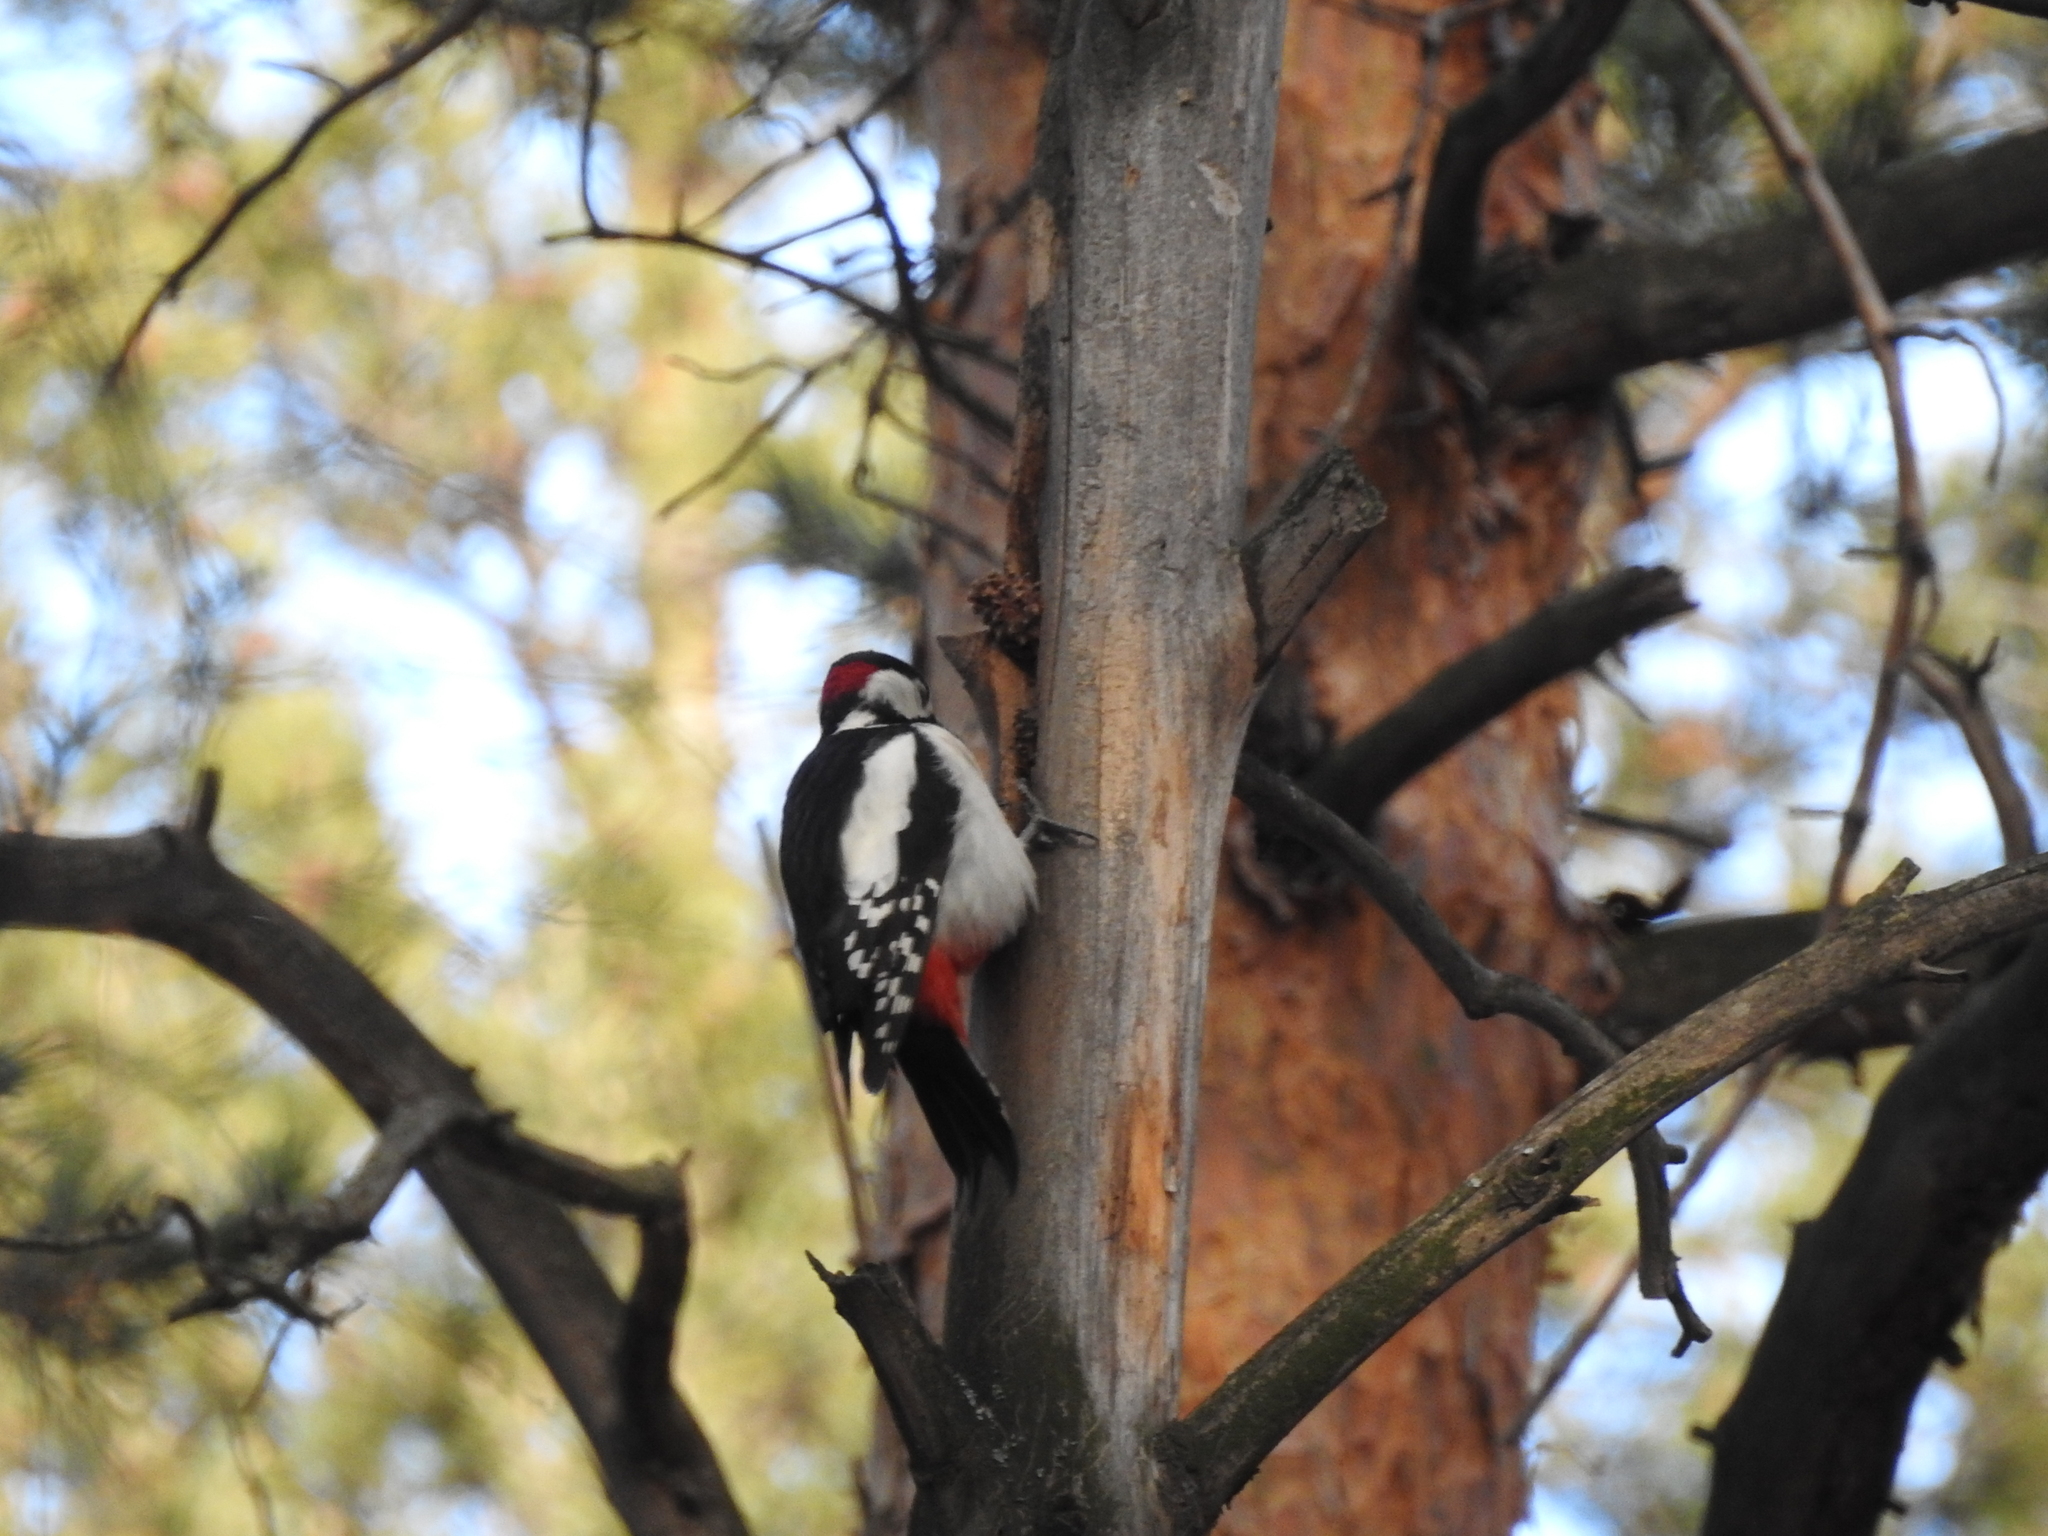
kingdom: Animalia
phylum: Chordata
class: Aves
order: Piciformes
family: Picidae
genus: Dendrocopos
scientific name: Dendrocopos major
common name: Great spotted woodpecker
